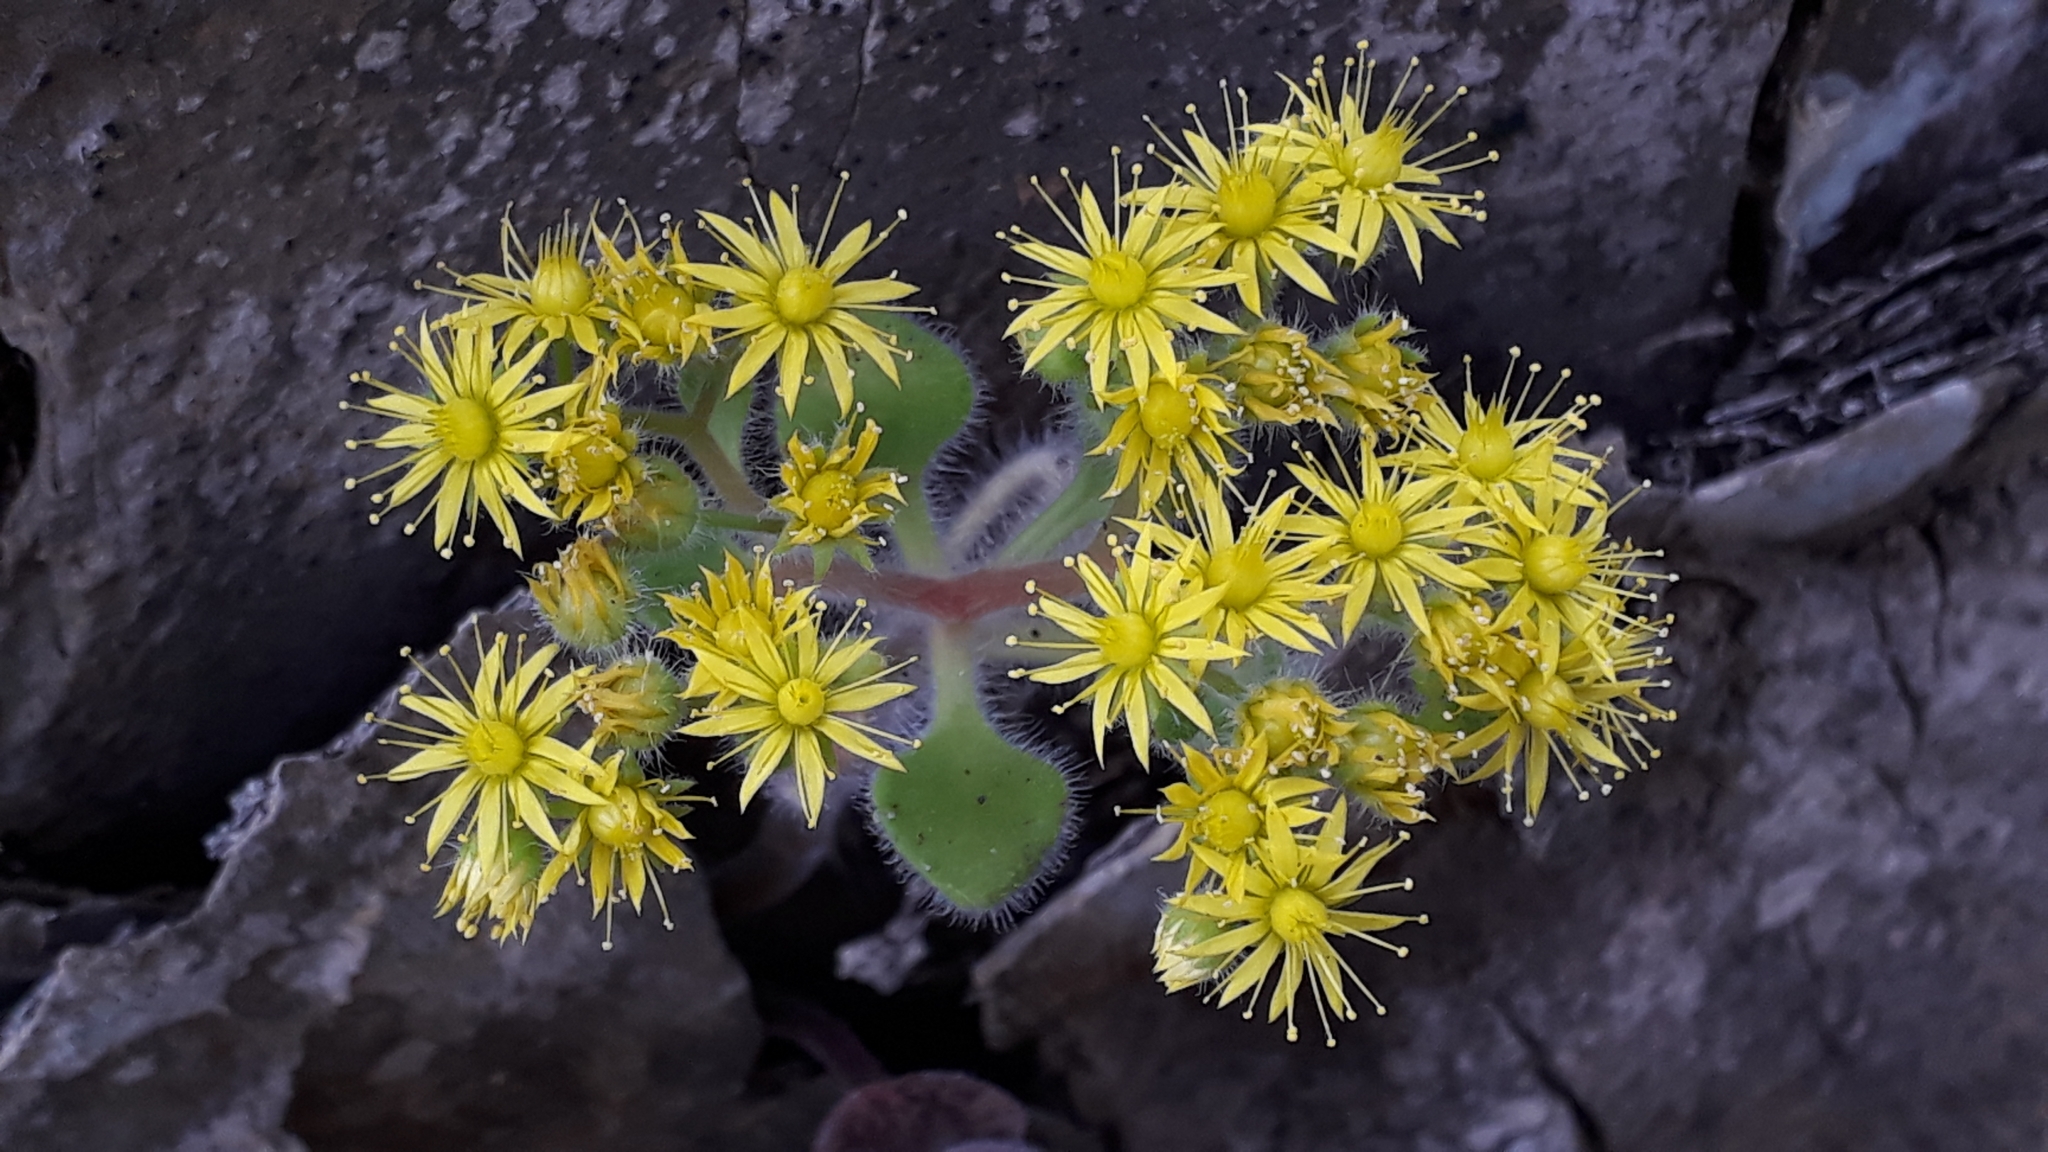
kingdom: Plantae
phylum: Tracheophyta
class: Magnoliopsida
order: Saxifragales
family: Crassulaceae
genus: Aichryson
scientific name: Aichryson laxum
